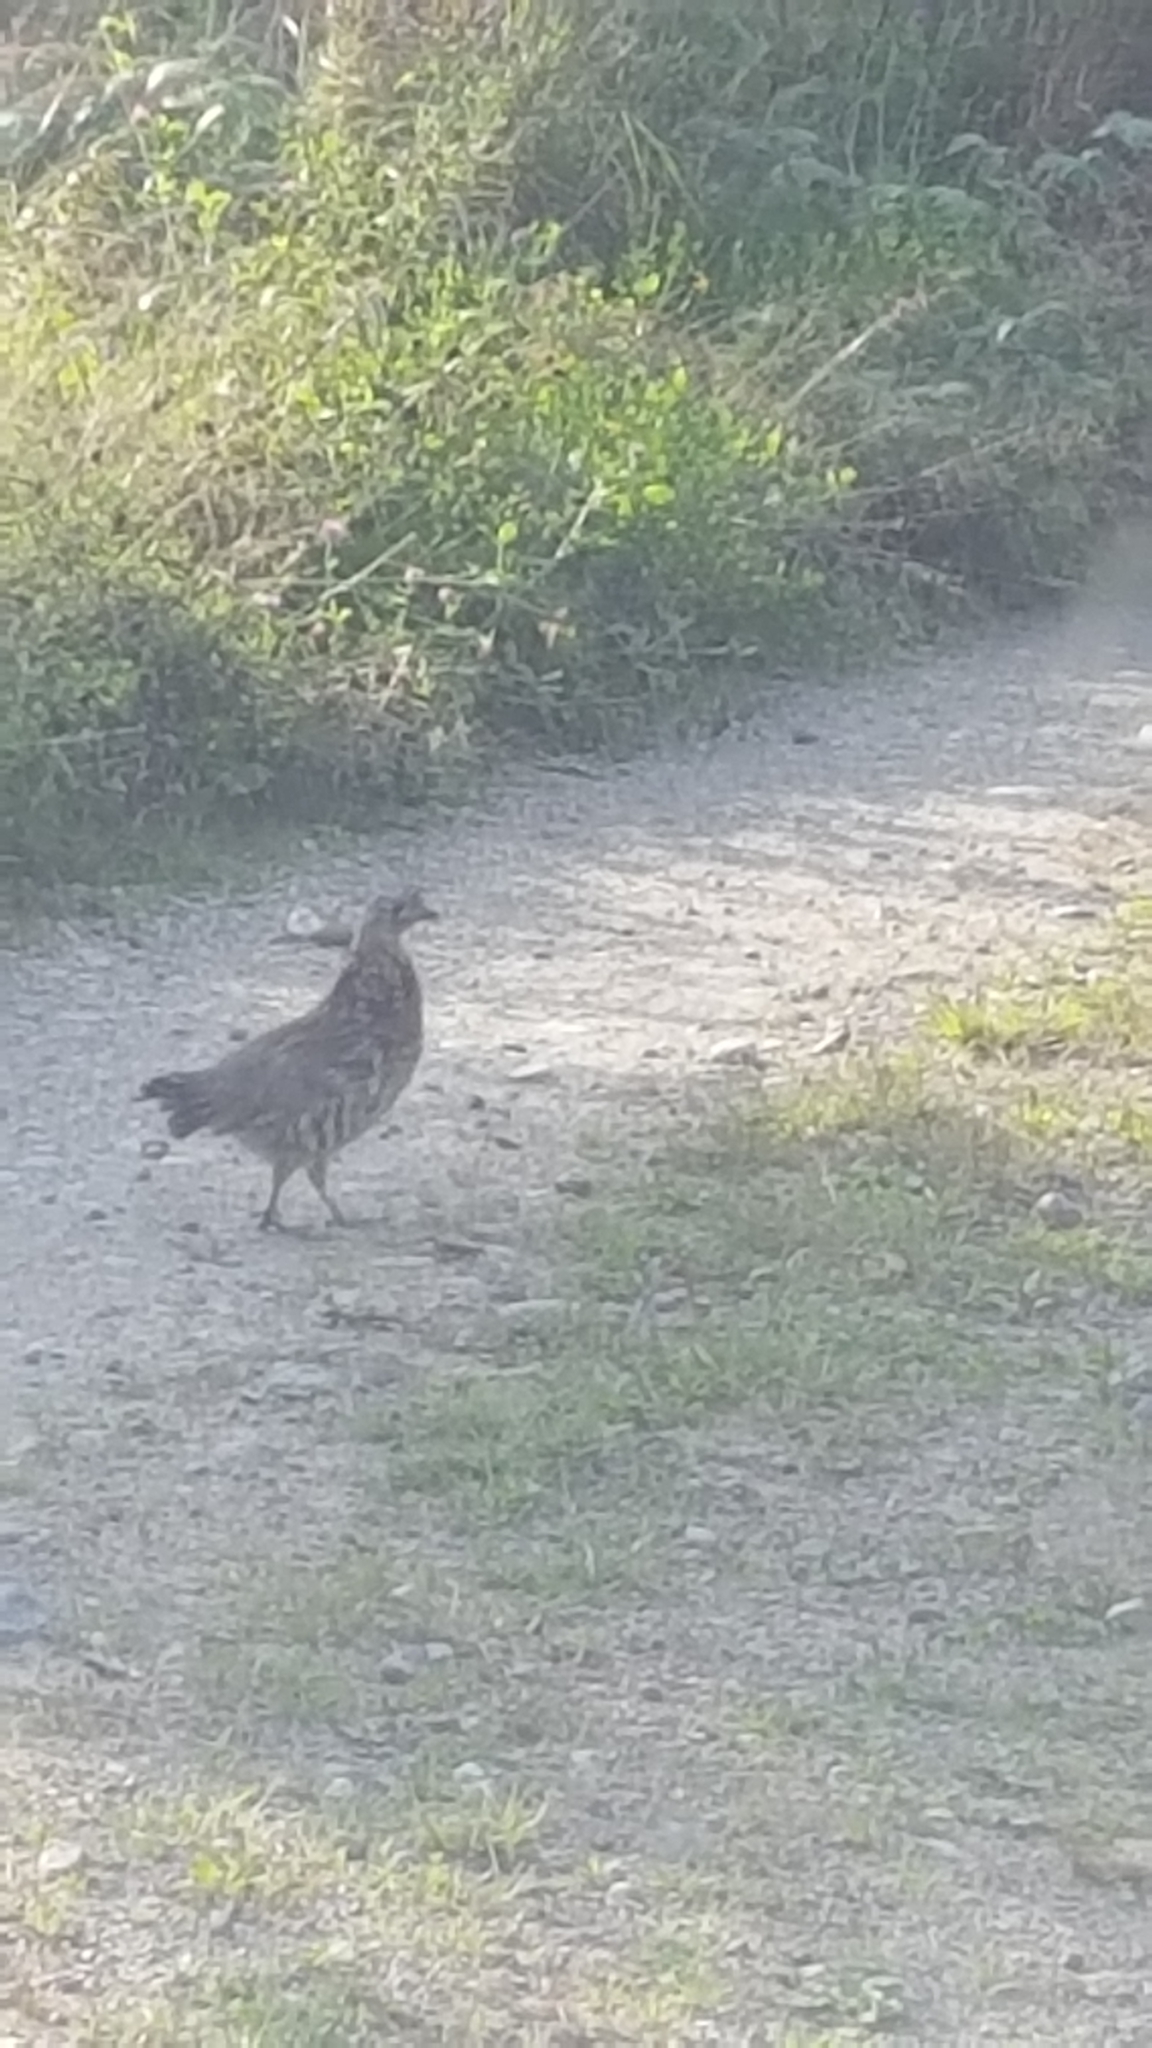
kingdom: Animalia
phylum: Chordata
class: Aves
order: Galliformes
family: Phasianidae
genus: Bonasa
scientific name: Bonasa umbellus
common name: Ruffed grouse
